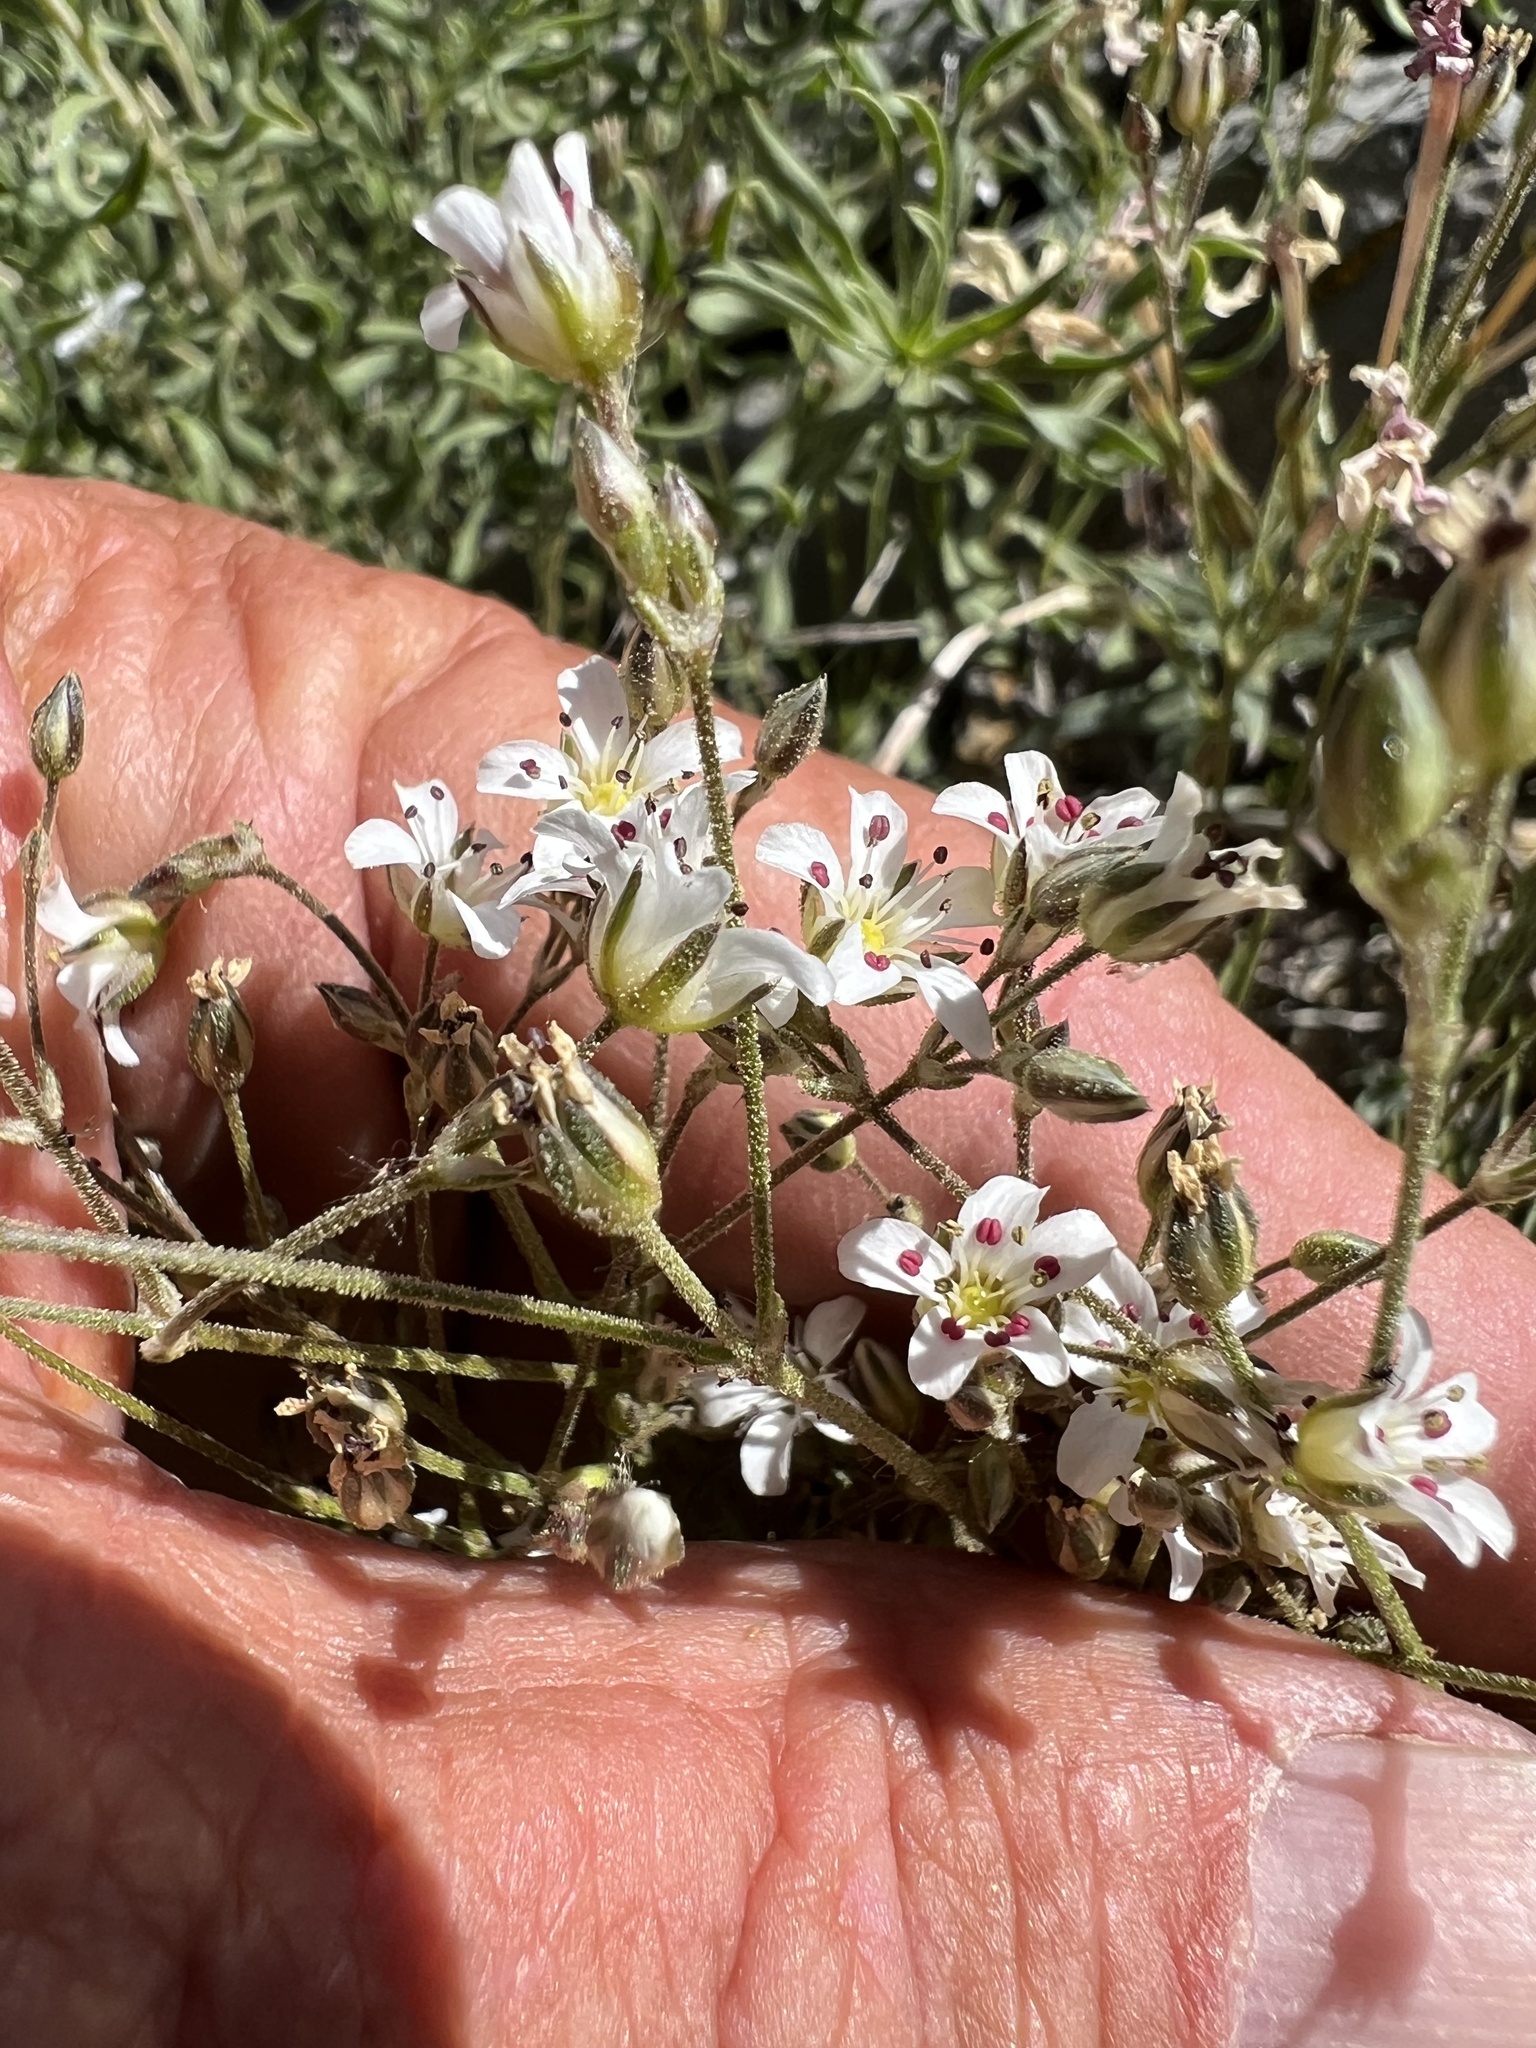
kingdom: Plantae
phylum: Tracheophyta
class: Magnoliopsida
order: Caryophyllales
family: Caryophyllaceae
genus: Eremogone
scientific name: Eremogone kingii
